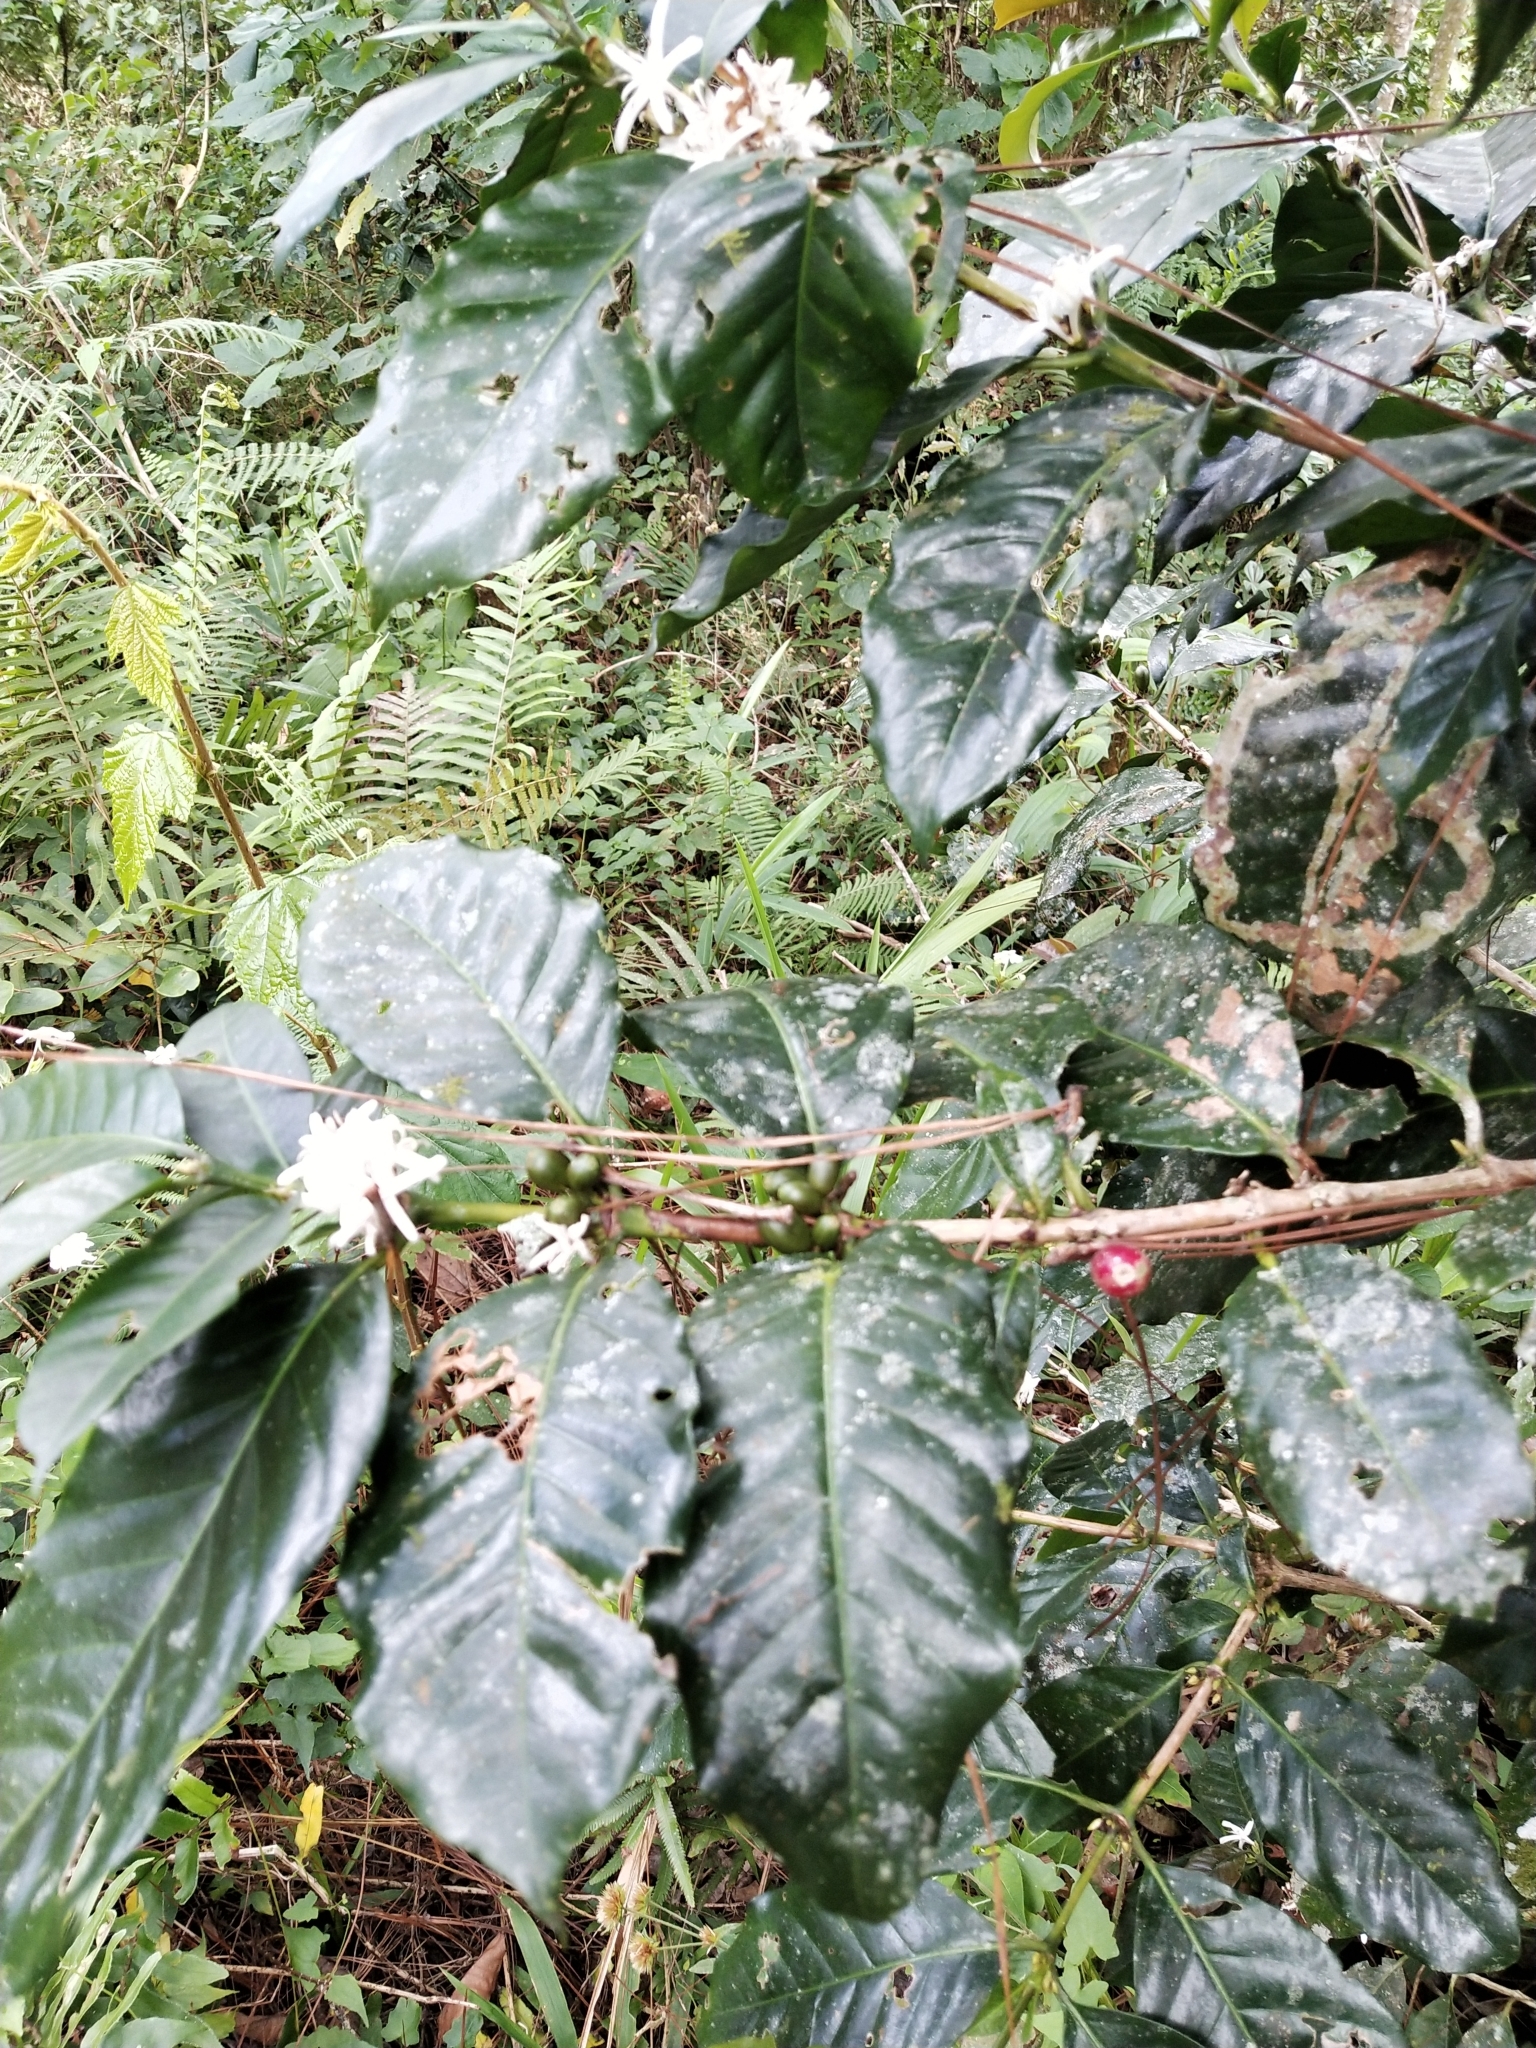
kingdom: Plantae
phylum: Tracheophyta
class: Magnoliopsida
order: Gentianales
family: Rubiaceae
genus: Coffea
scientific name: Coffea arabica
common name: Coffee
